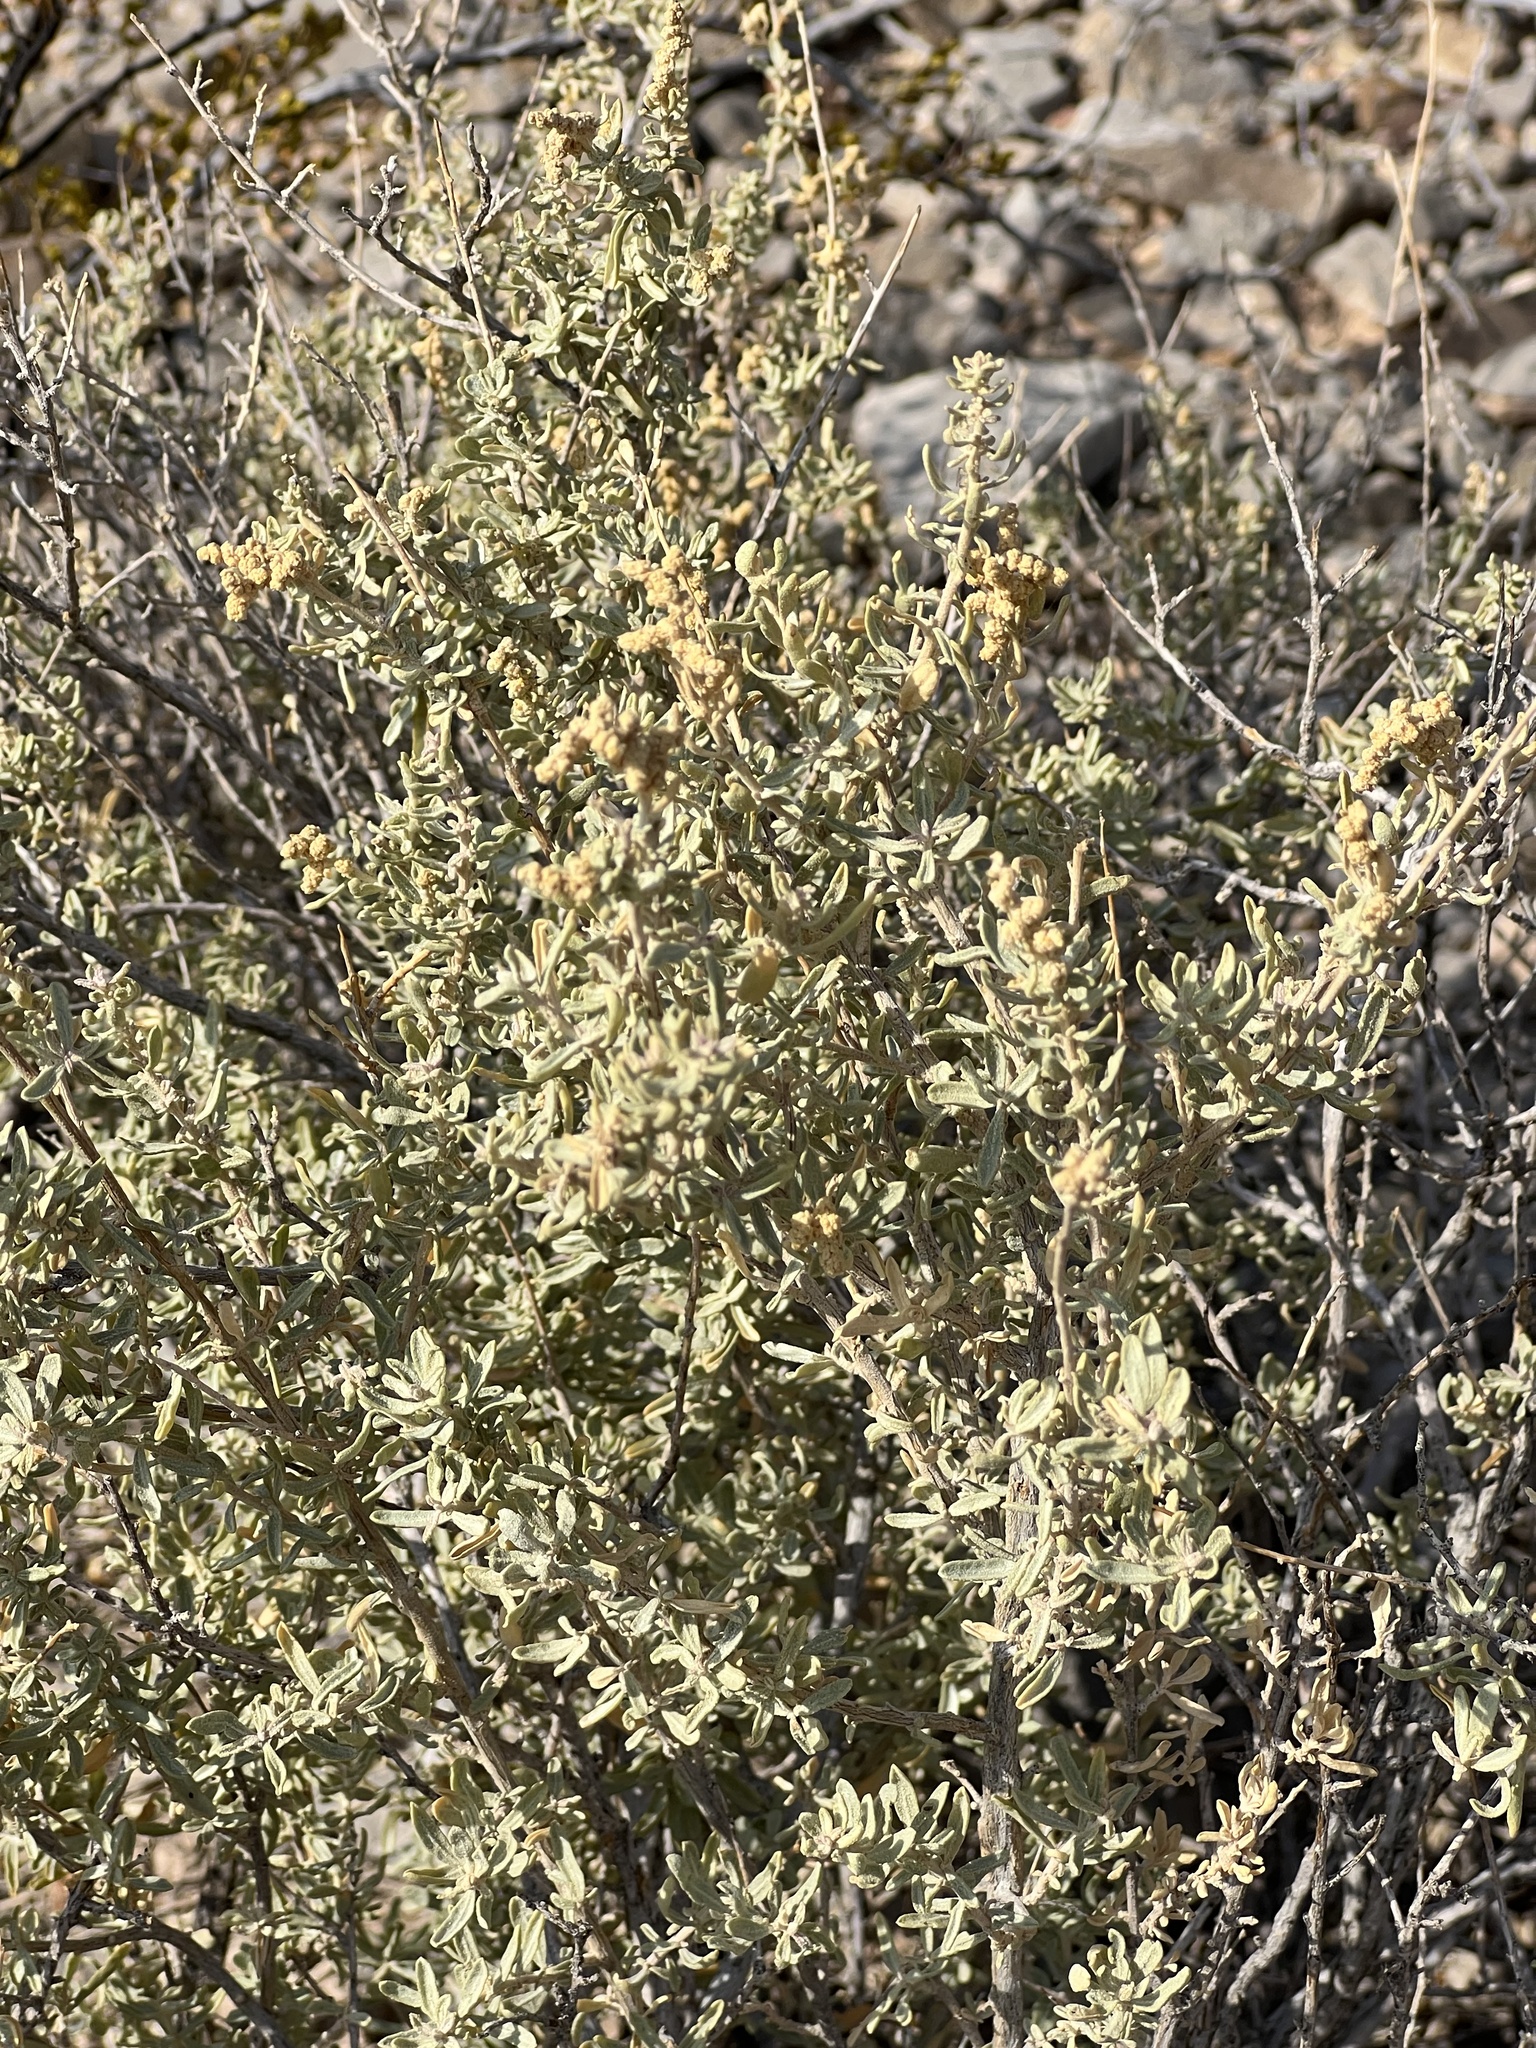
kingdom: Plantae
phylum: Tracheophyta
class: Magnoliopsida
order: Caryophyllales
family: Amaranthaceae
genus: Atriplex
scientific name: Atriplex canescens
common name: Four-wing saltbush
